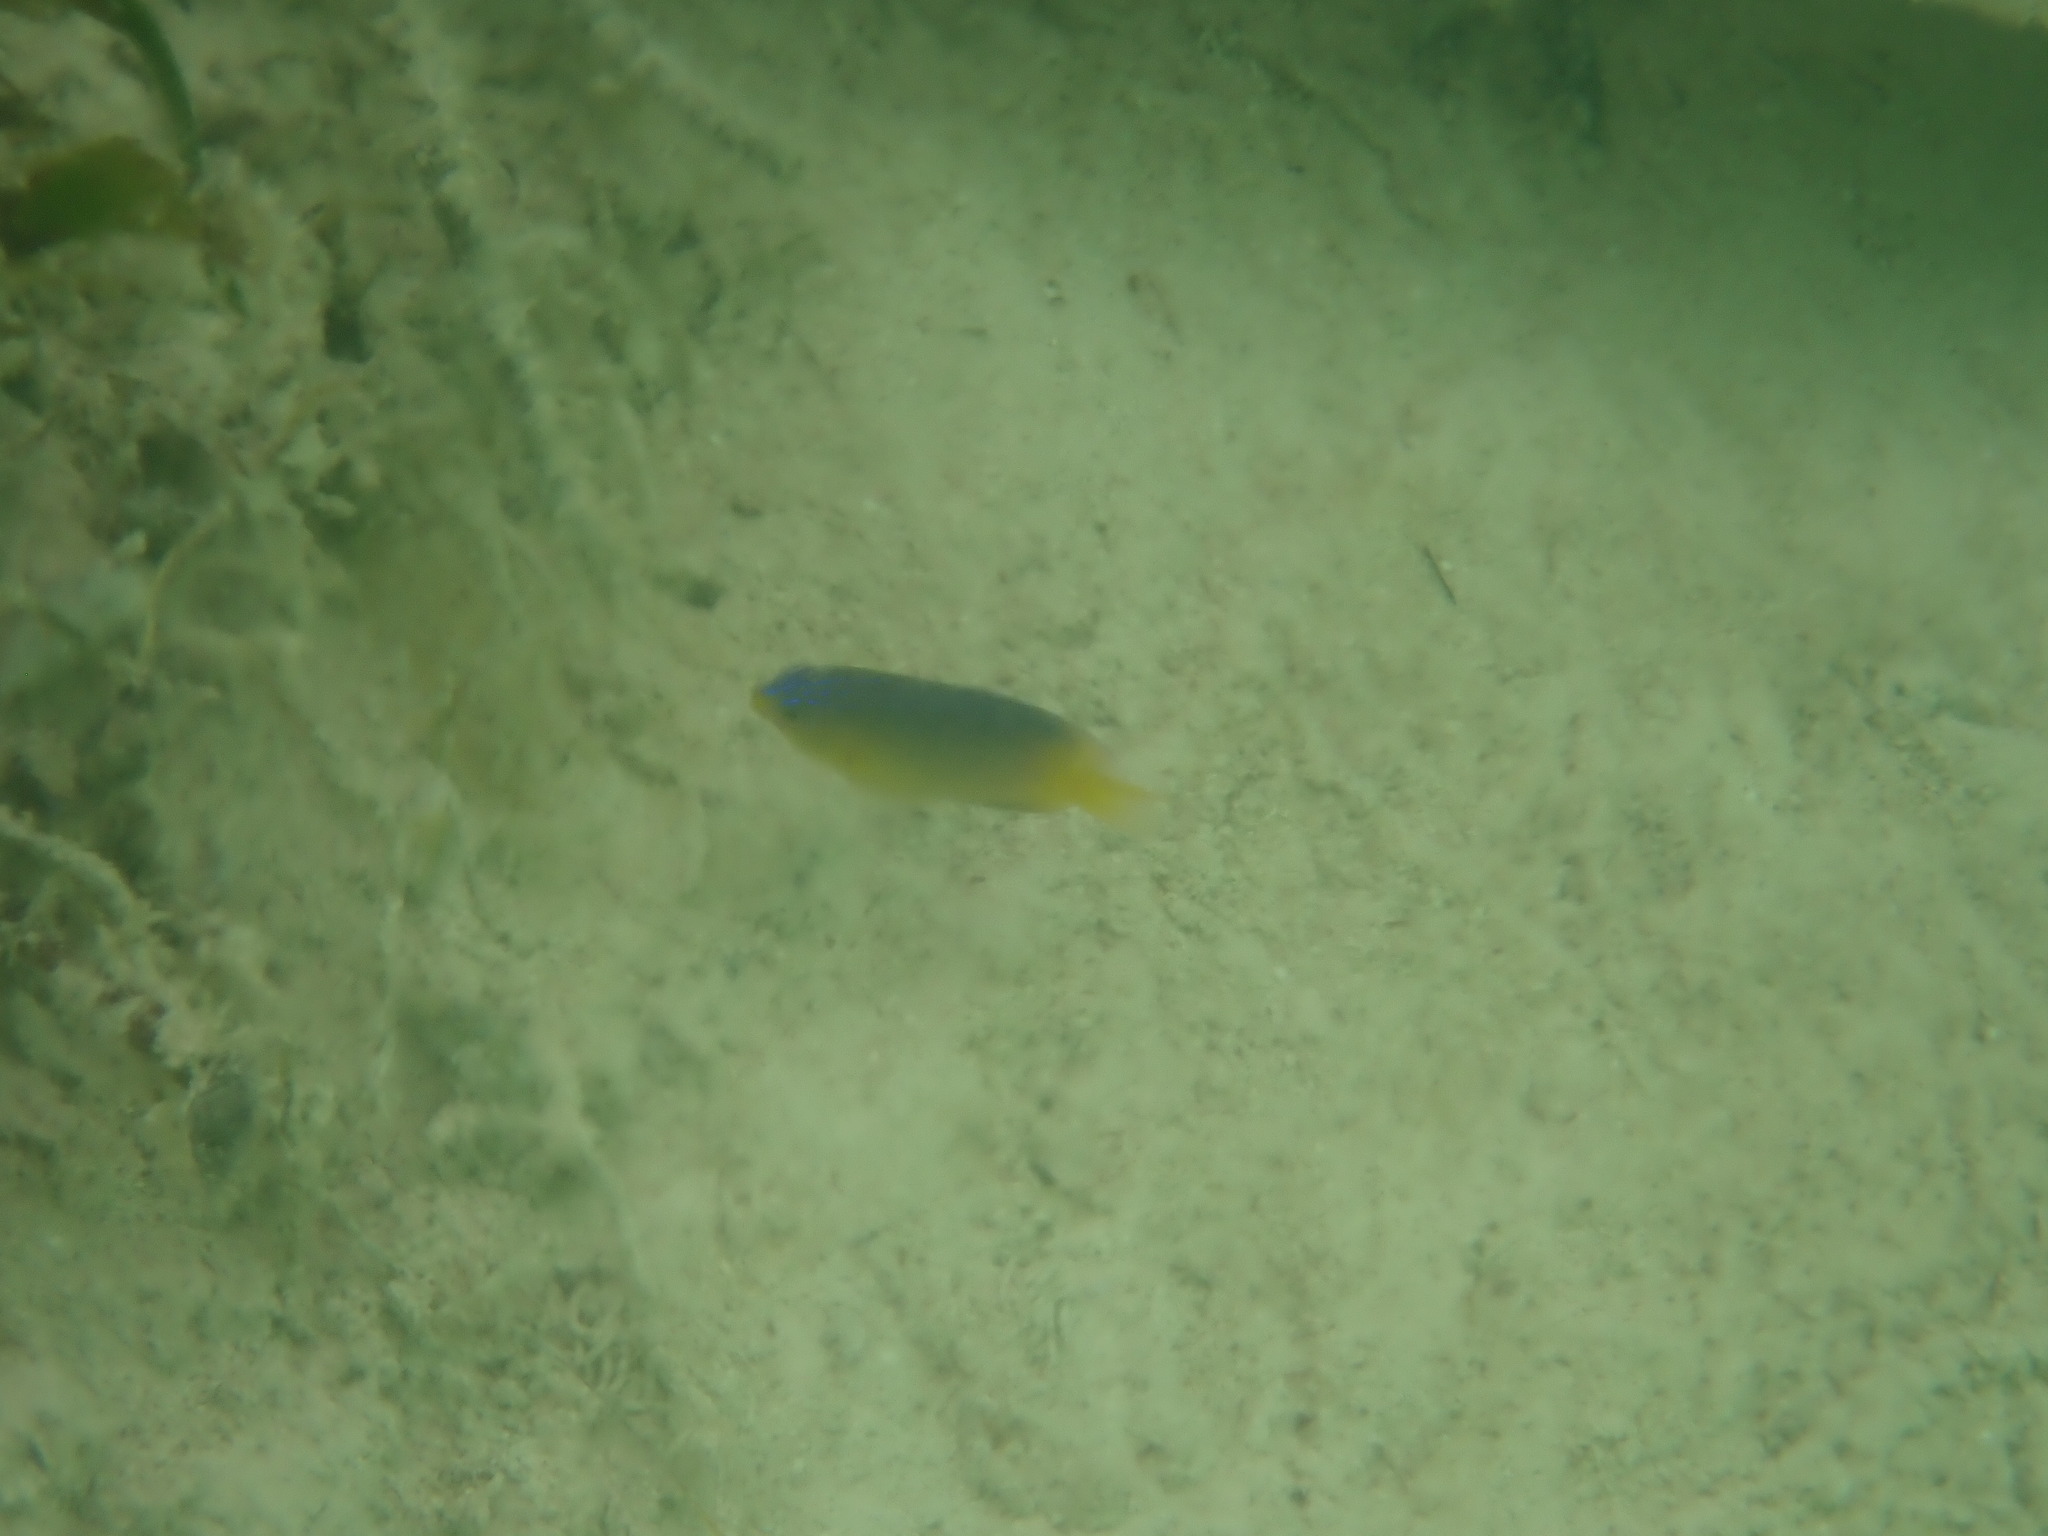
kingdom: Animalia
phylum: Chordata
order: Perciformes
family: Pomacentridae
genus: Stegastes
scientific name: Stegastes leucostictus
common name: Beaugregory
